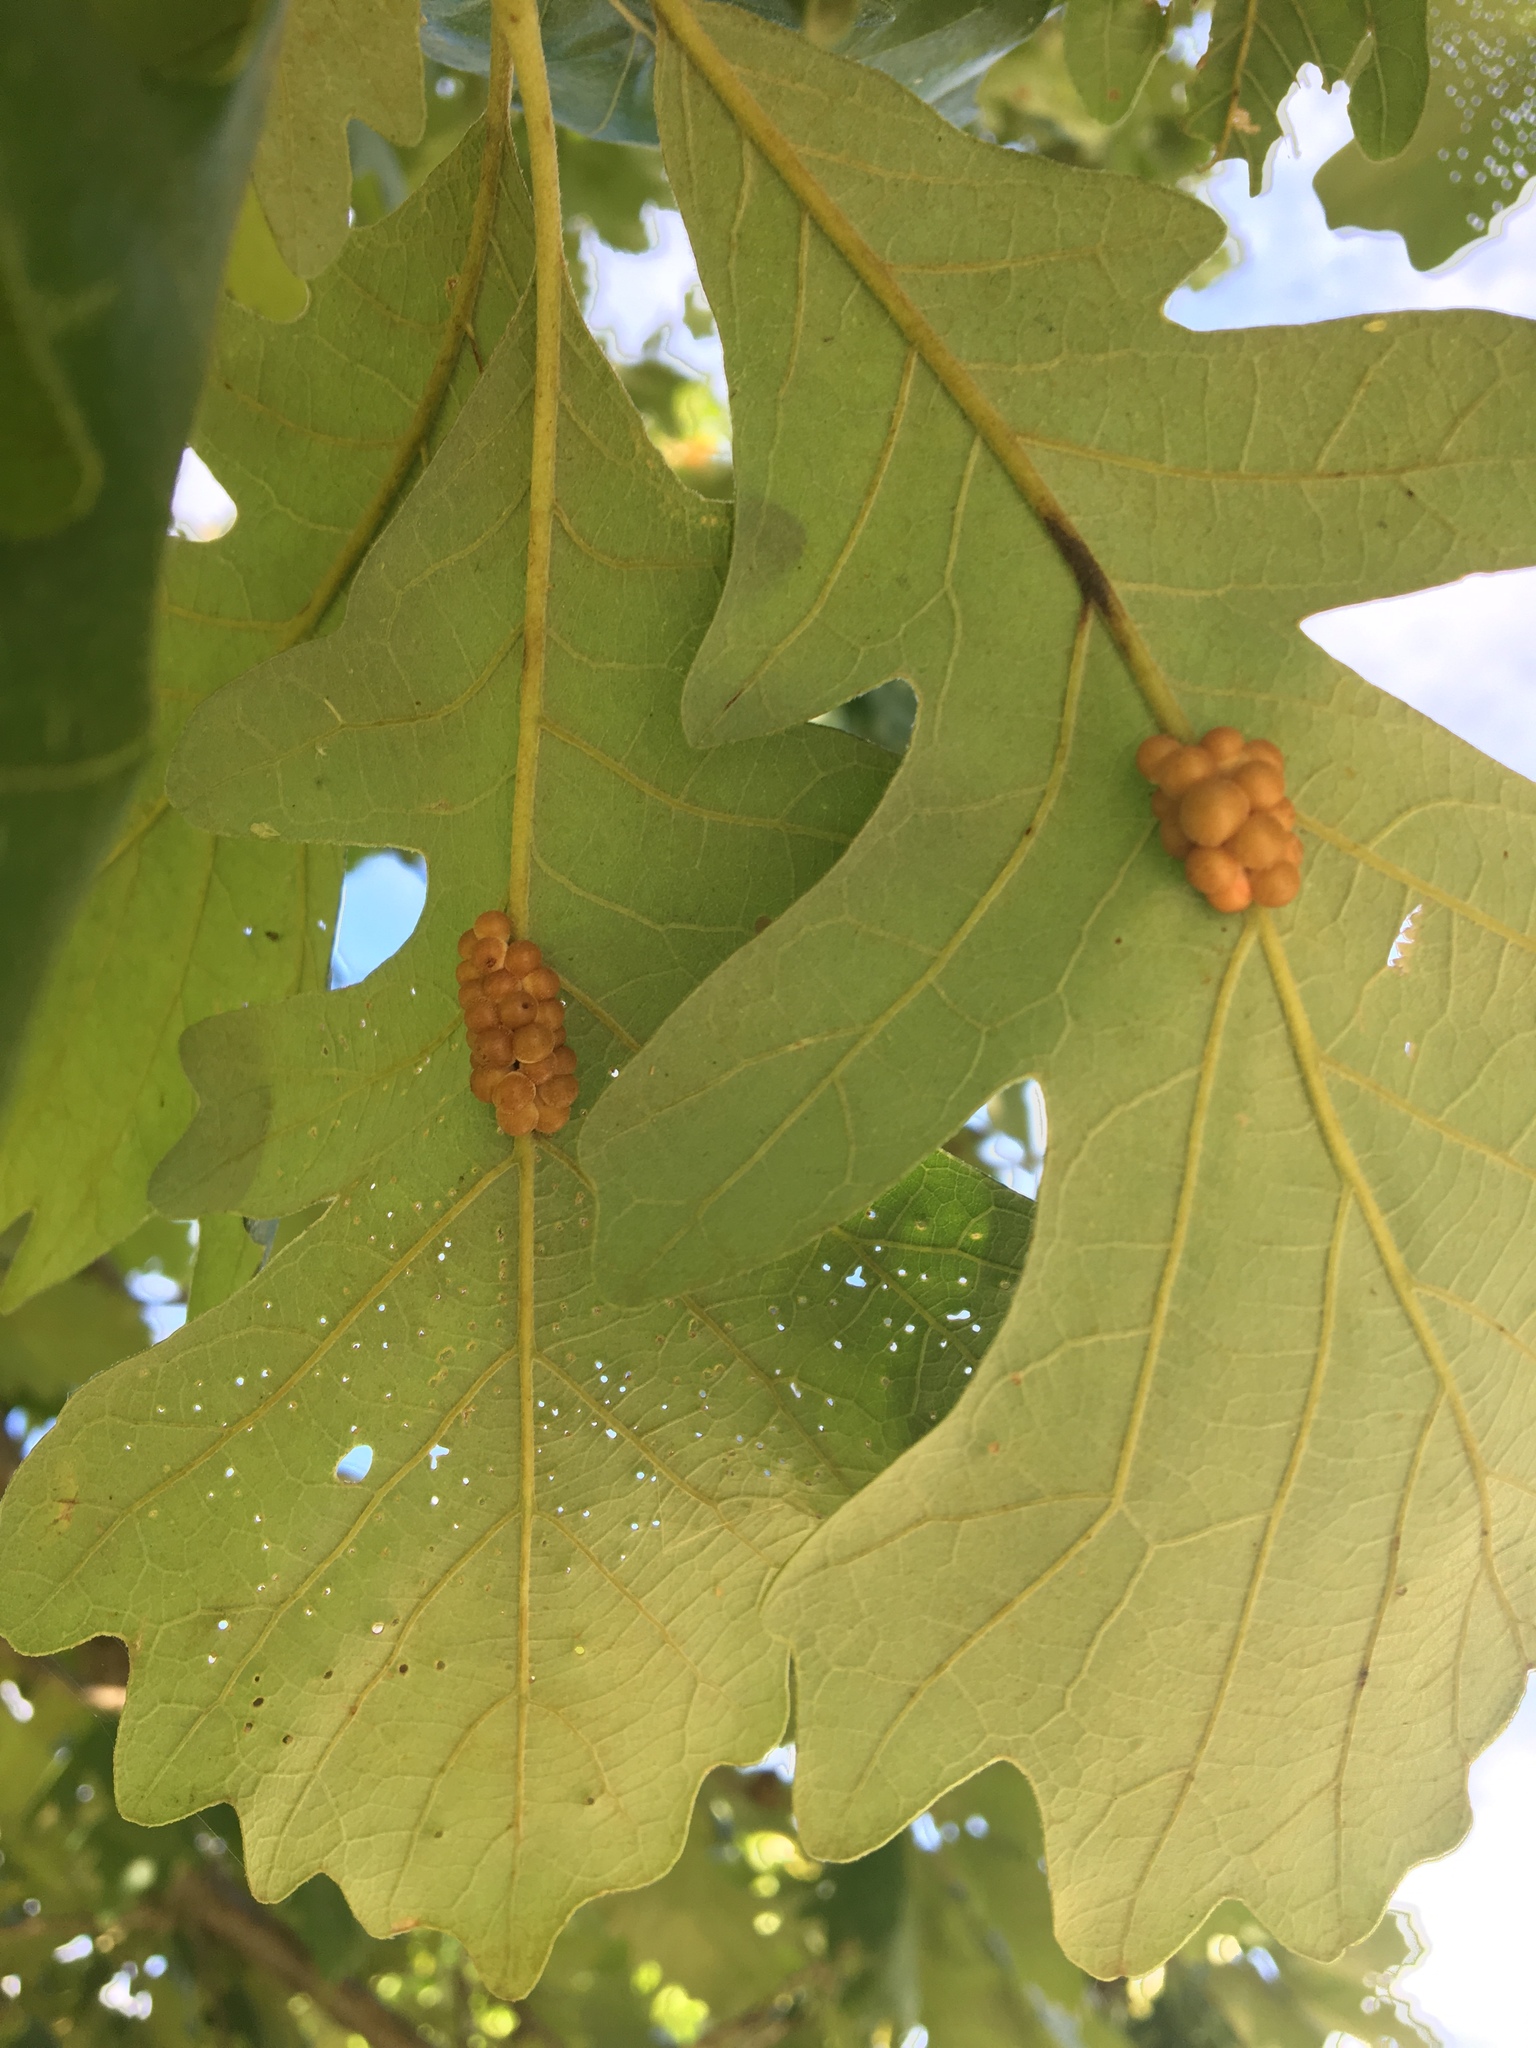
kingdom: Animalia
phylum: Arthropoda
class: Insecta
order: Hymenoptera
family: Cynipidae
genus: Andricus
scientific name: Andricus
